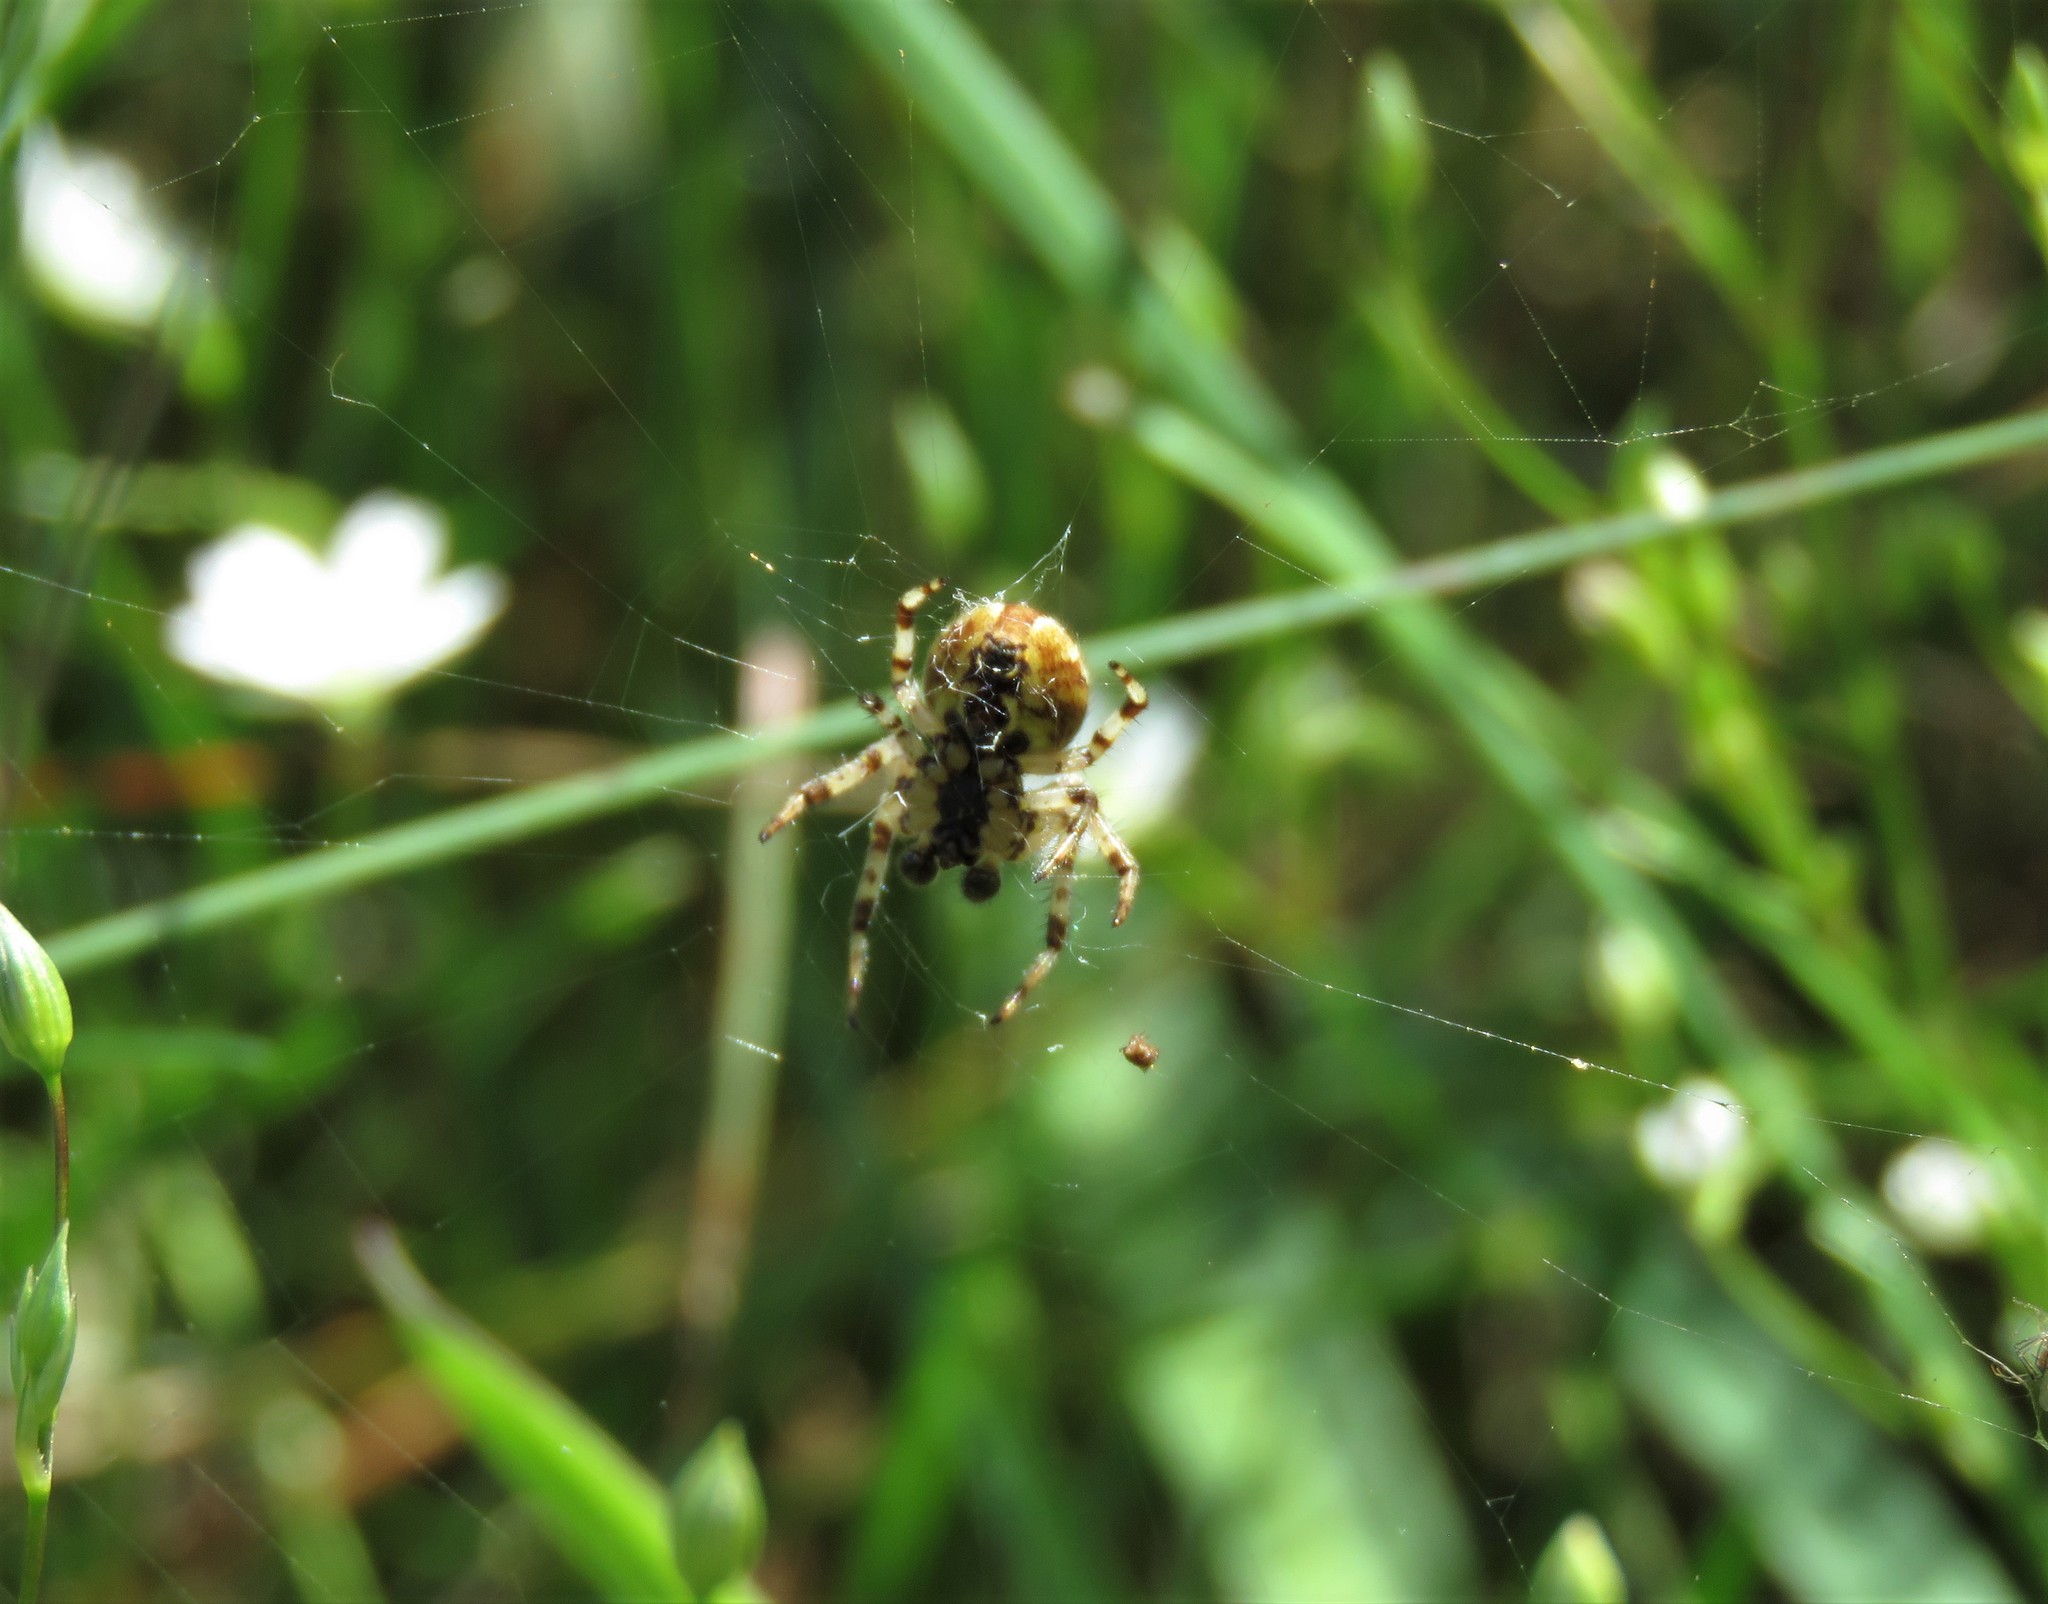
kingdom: Animalia
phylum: Arthropoda
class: Arachnida
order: Araneae
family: Araneidae
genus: Araneus
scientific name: Araneus quadratus
